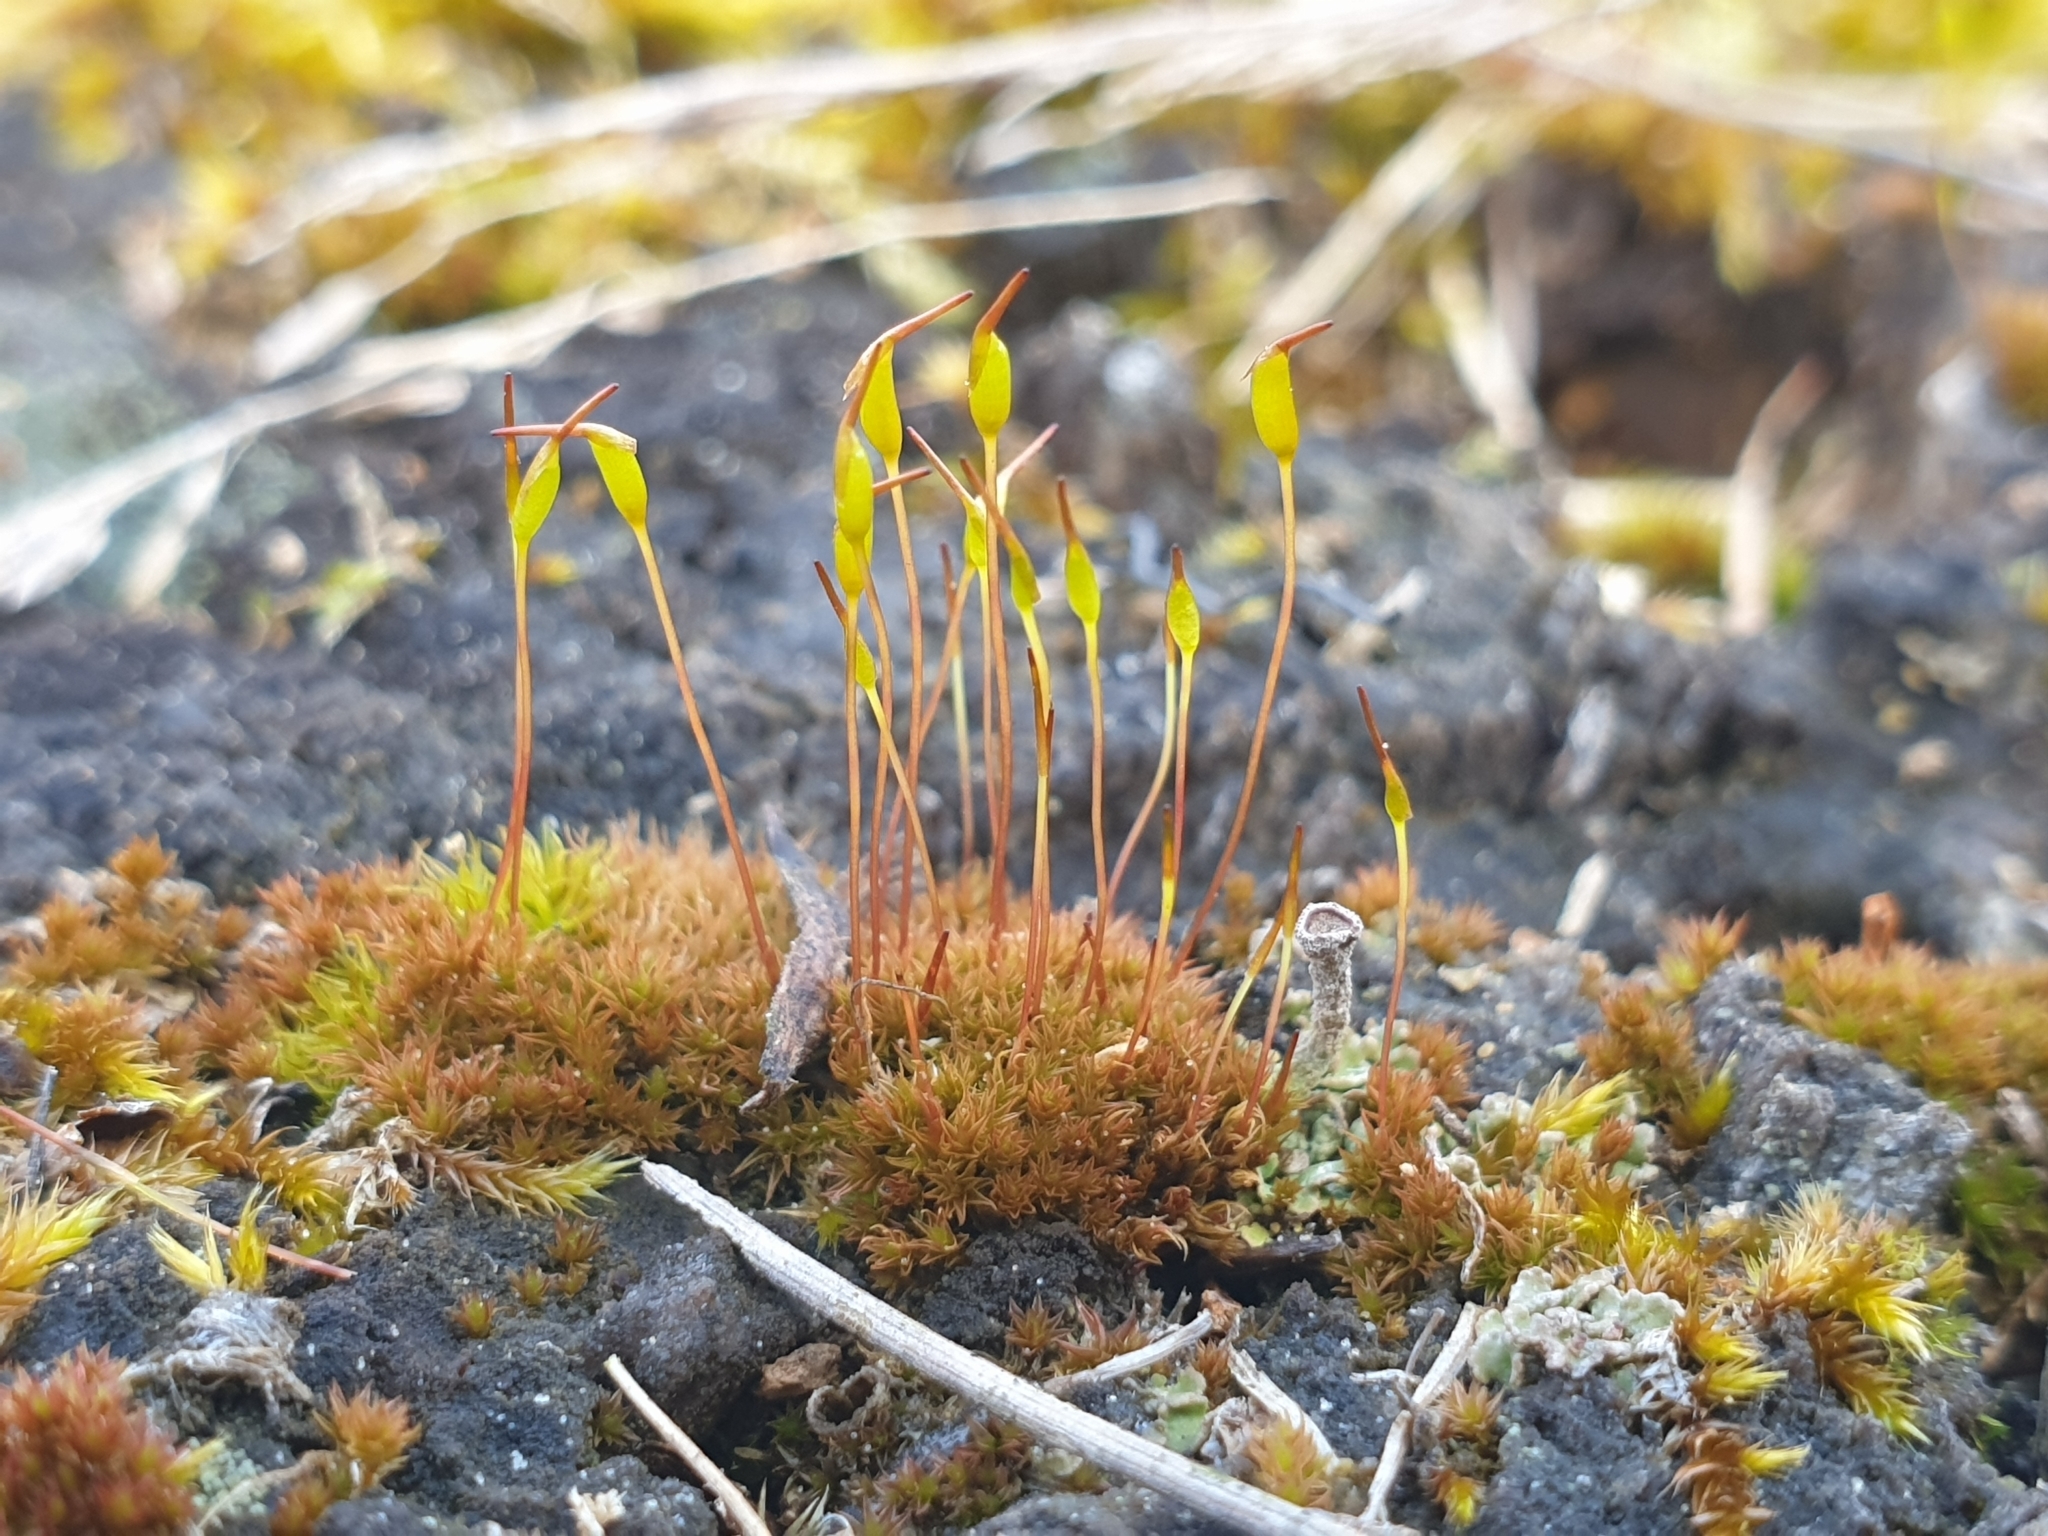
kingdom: Plantae
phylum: Bryophyta
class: Bryopsida
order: Dicranales
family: Ditrichaceae
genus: Ceratodon
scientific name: Ceratodon purpureus
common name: Redshank
